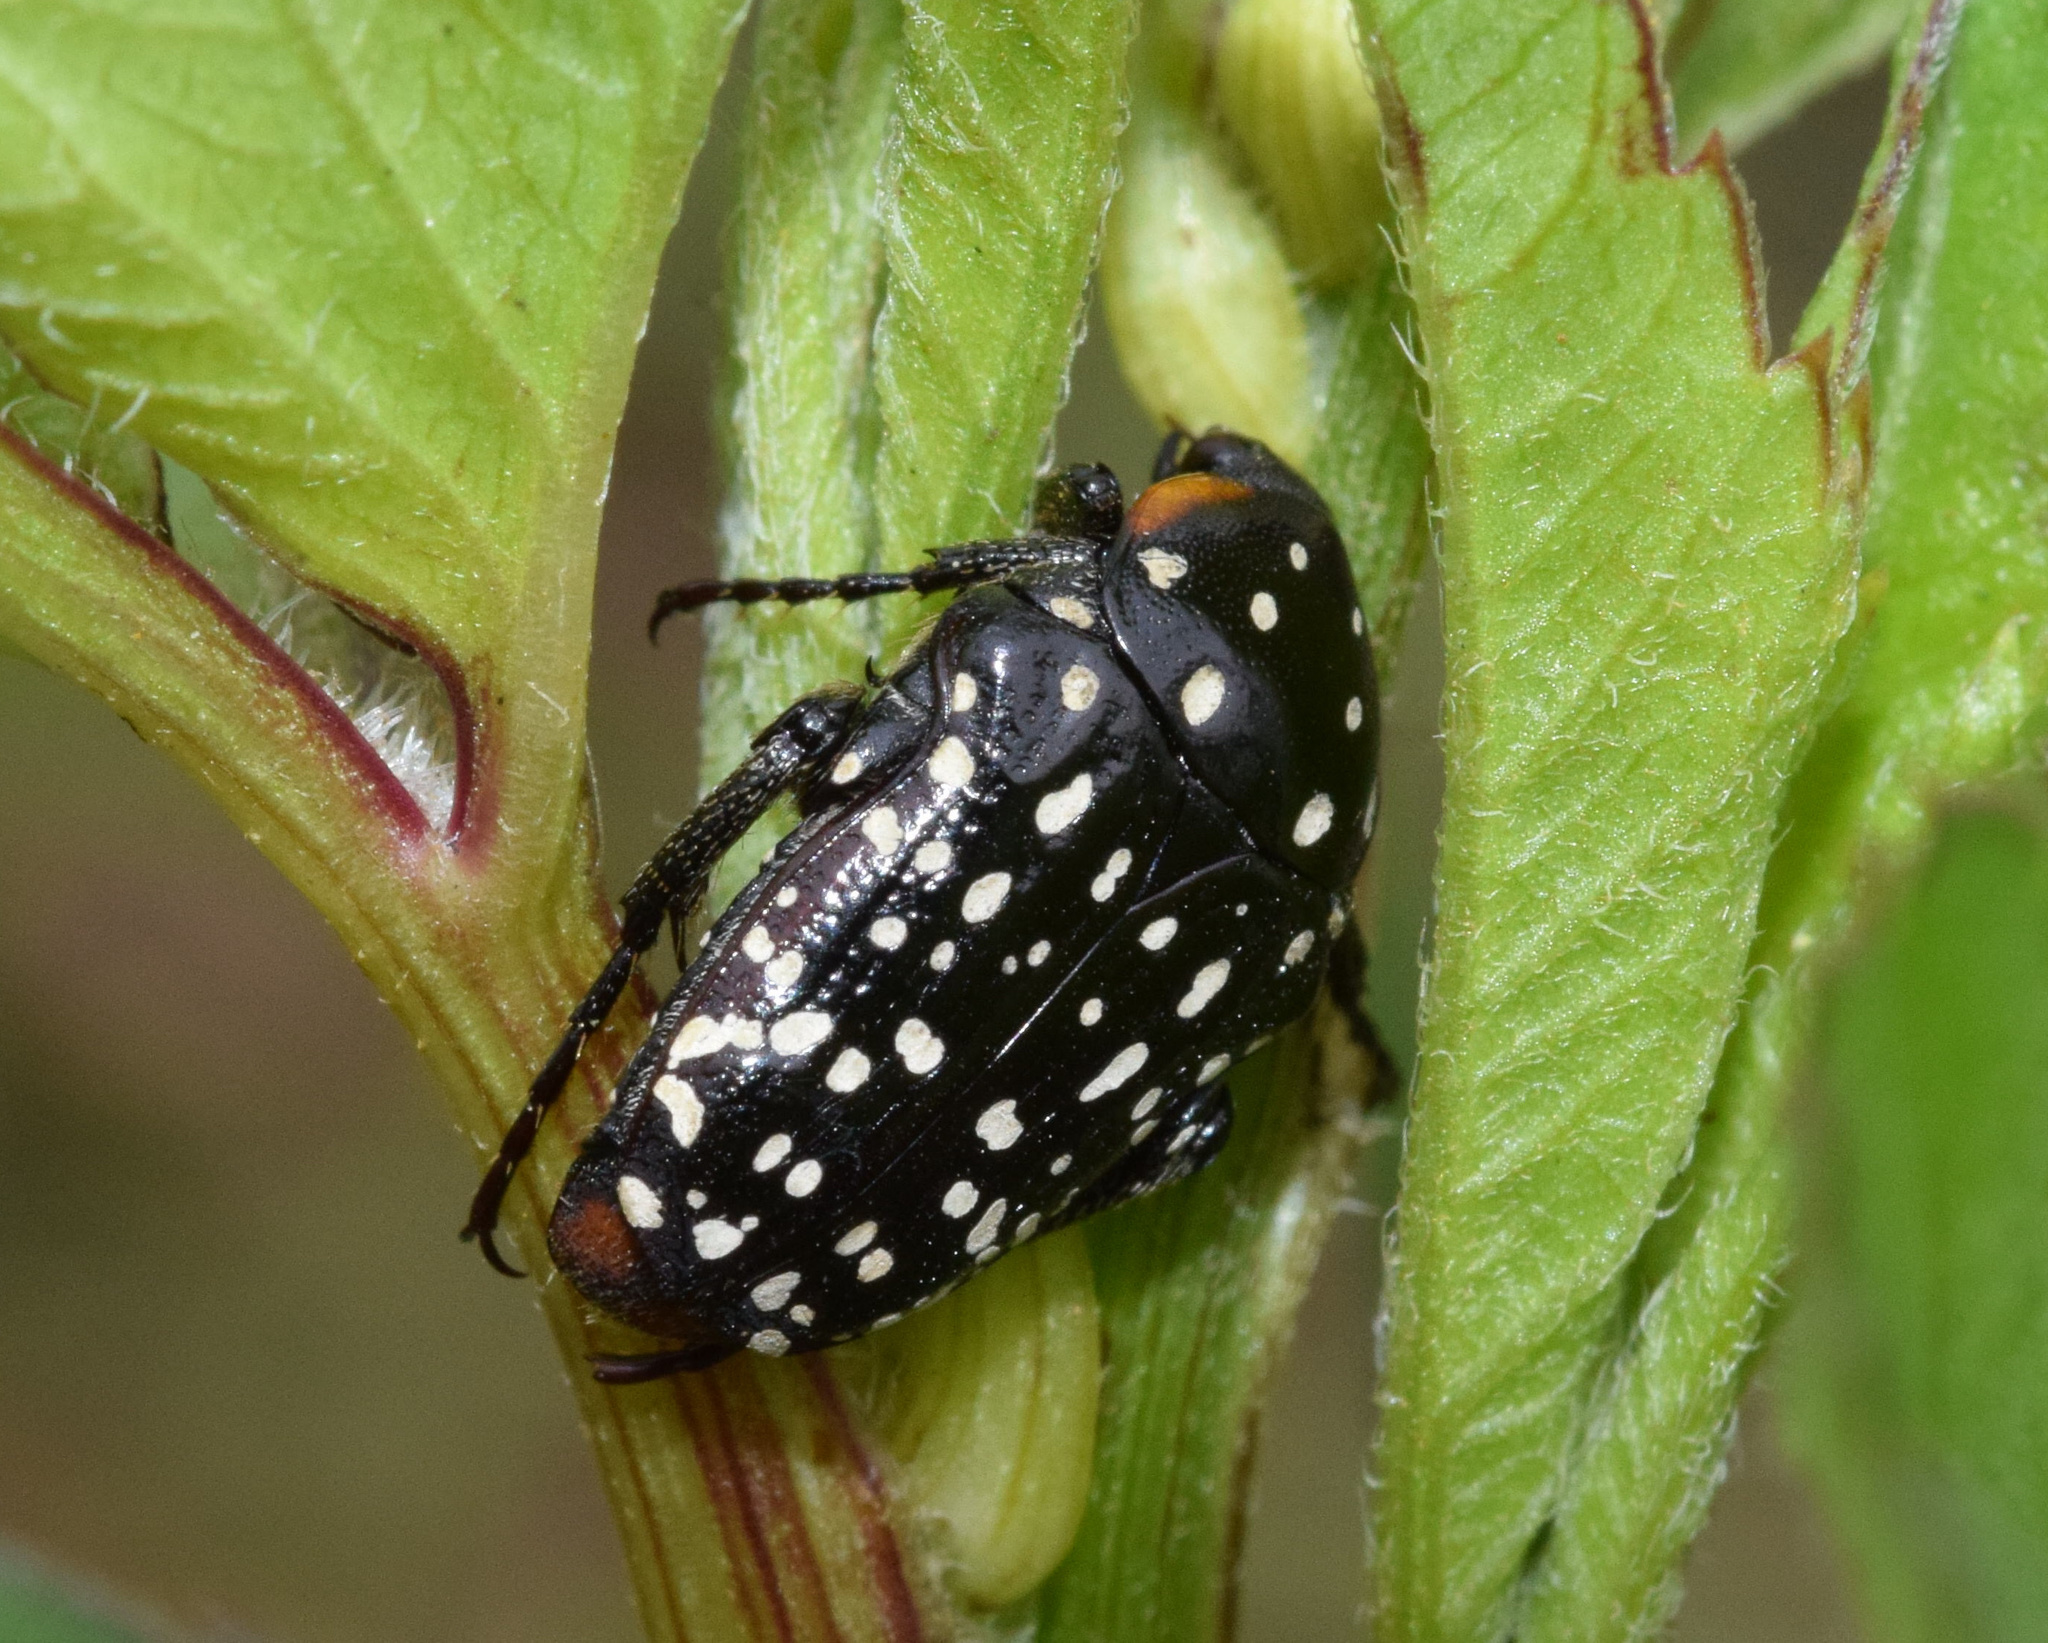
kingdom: Animalia
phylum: Arthropoda
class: Insecta
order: Coleoptera
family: Scarabaeidae
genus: Oxythyrea
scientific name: Oxythyrea
